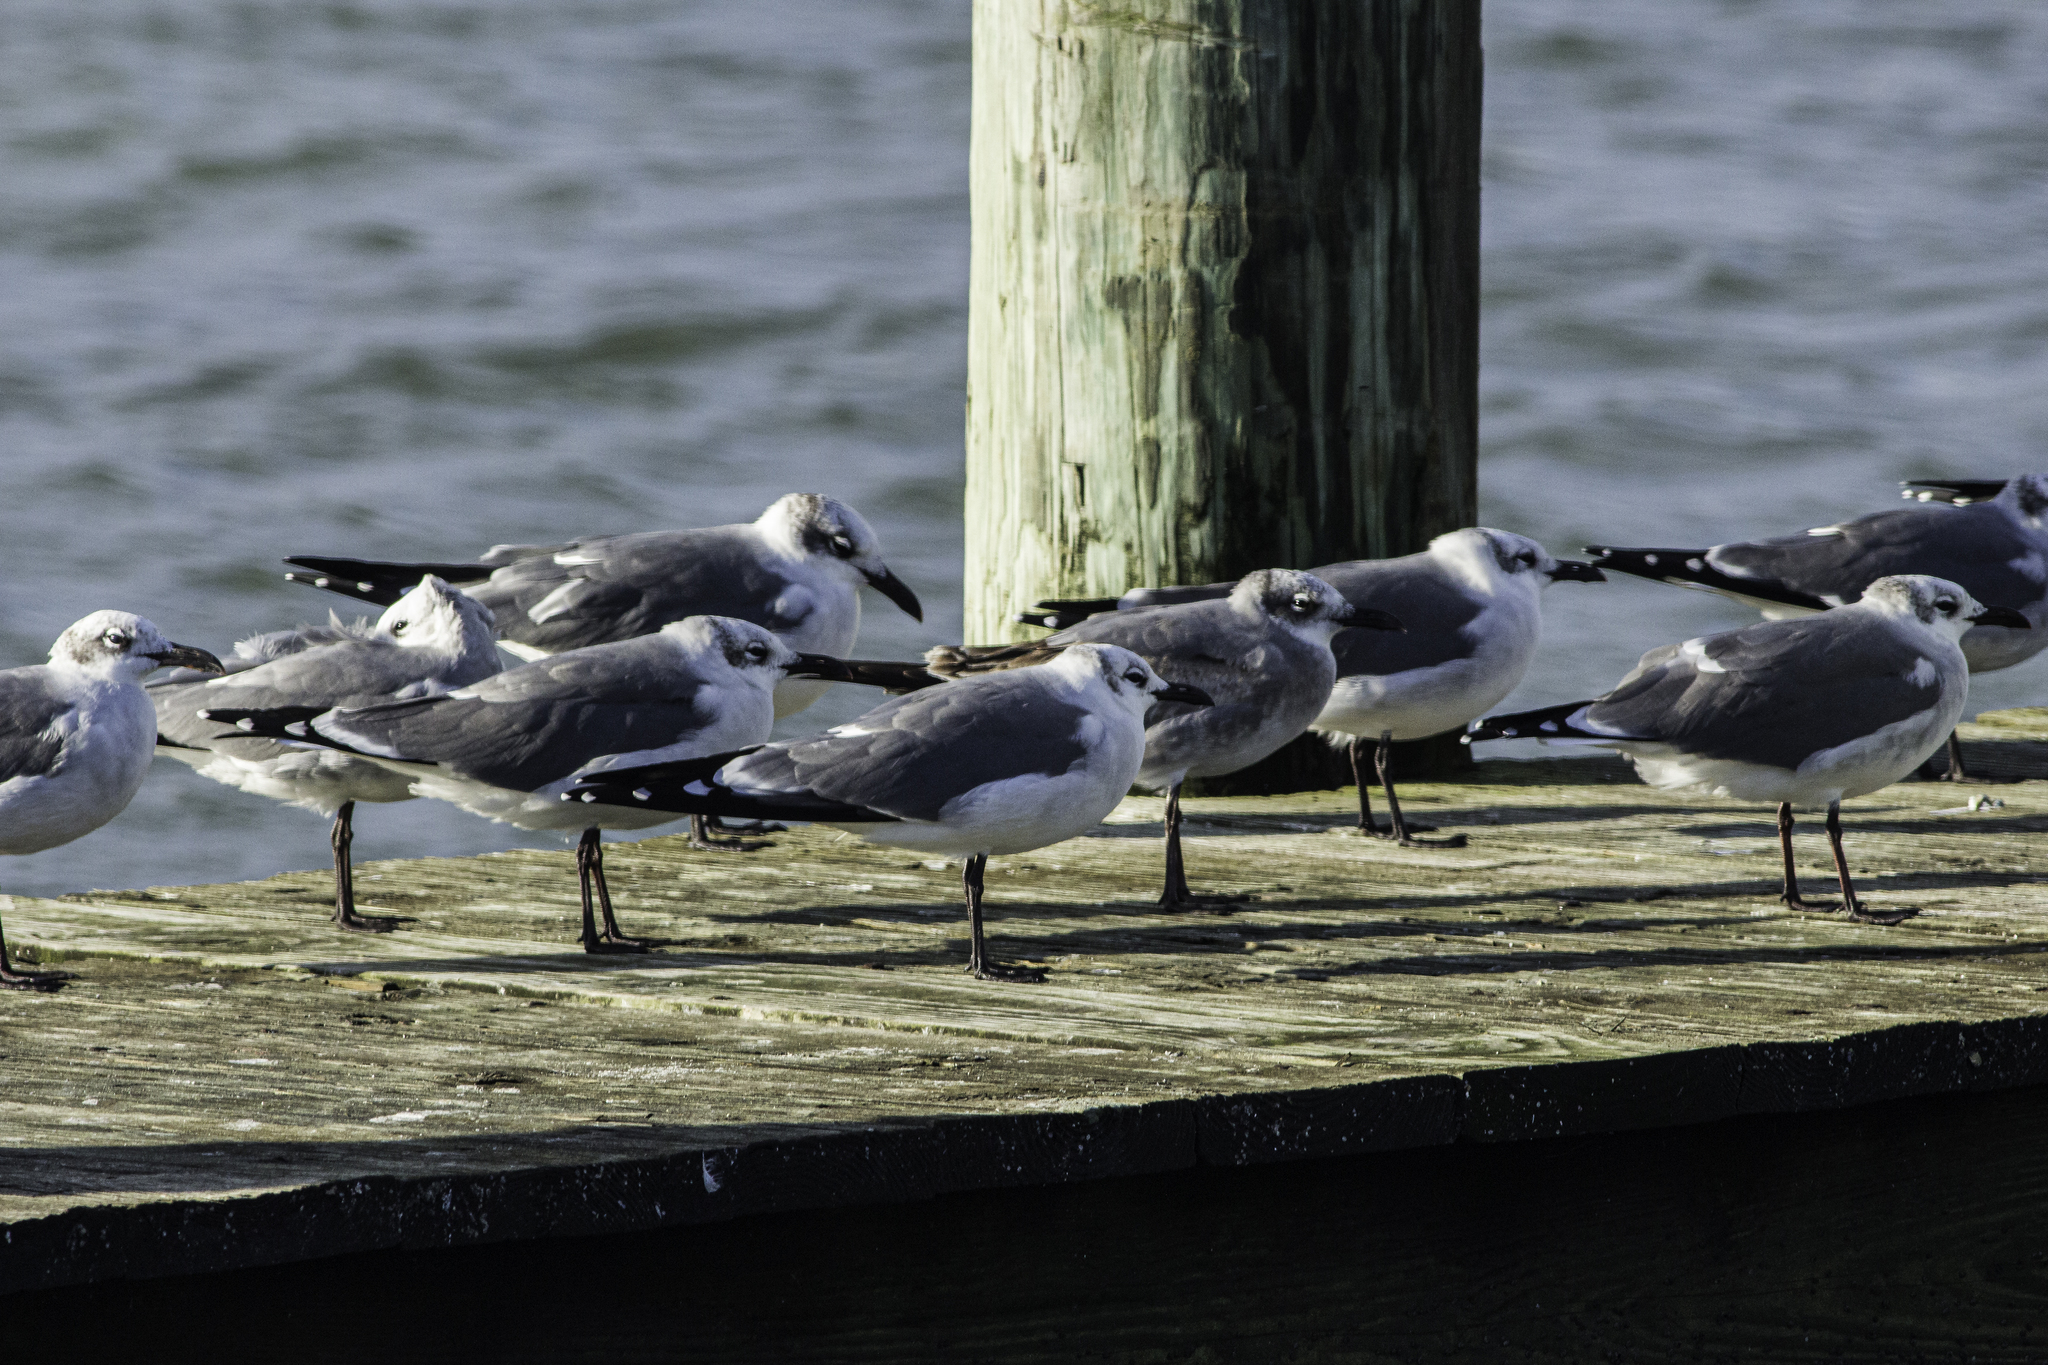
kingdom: Animalia
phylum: Chordata
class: Aves
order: Charadriiformes
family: Laridae
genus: Leucophaeus
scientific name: Leucophaeus atricilla
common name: Laughing gull
